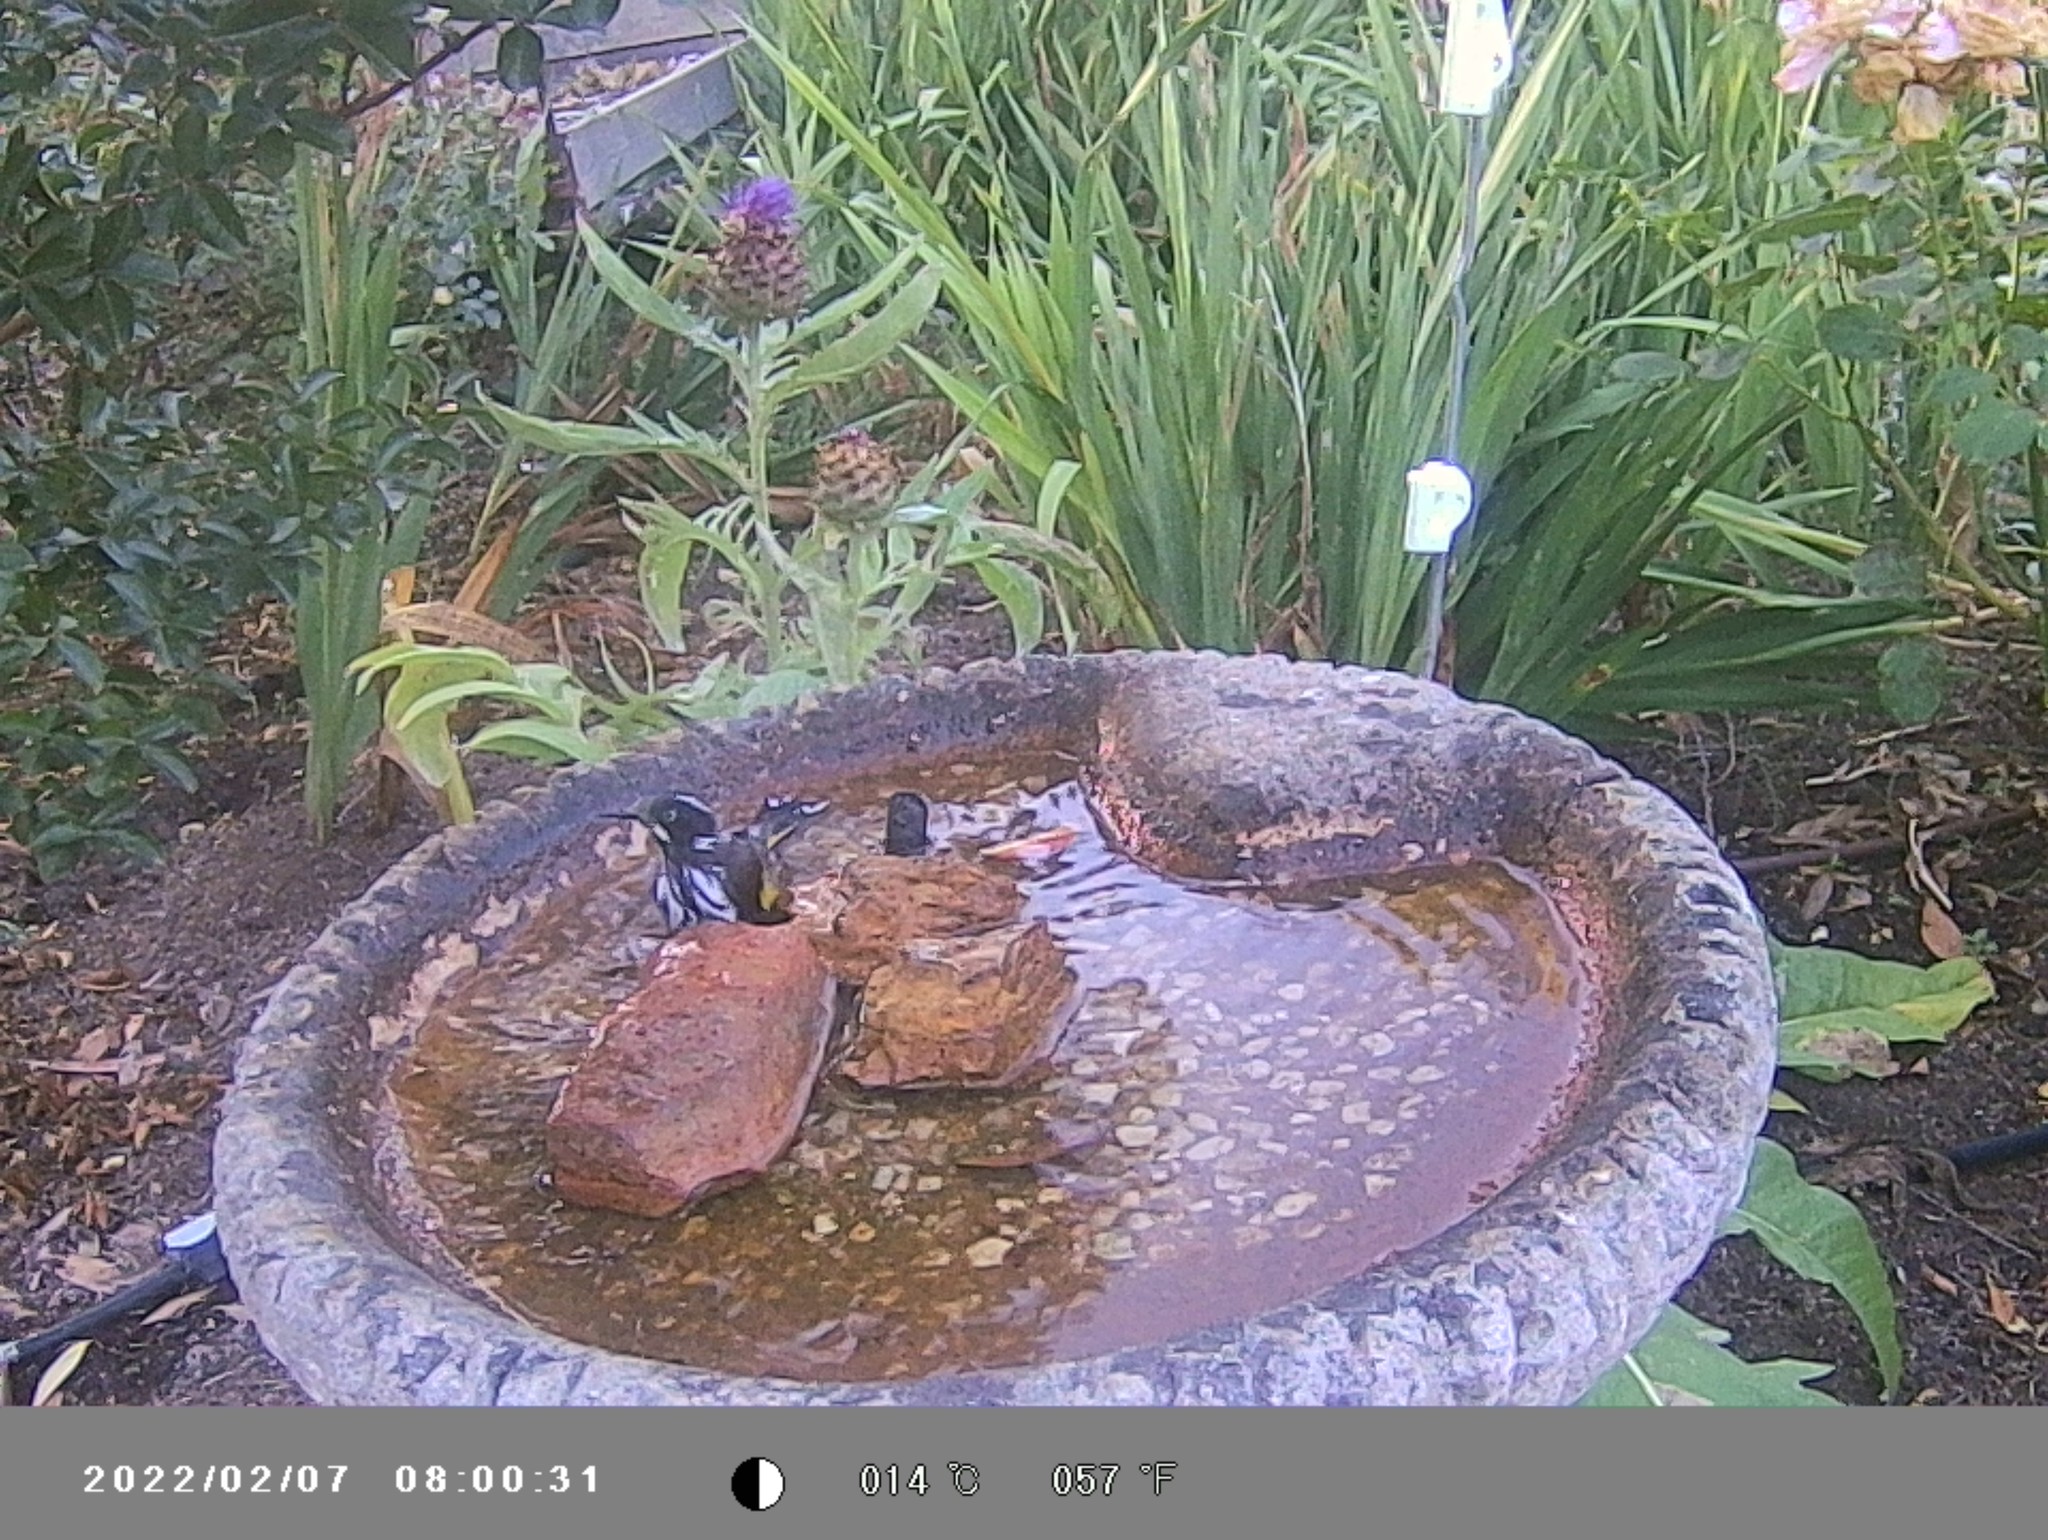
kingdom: Animalia
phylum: Chordata
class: Aves
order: Passeriformes
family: Meliphagidae
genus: Phylidonyris
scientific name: Phylidonyris novaehollandiae
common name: New holland honeyeater
